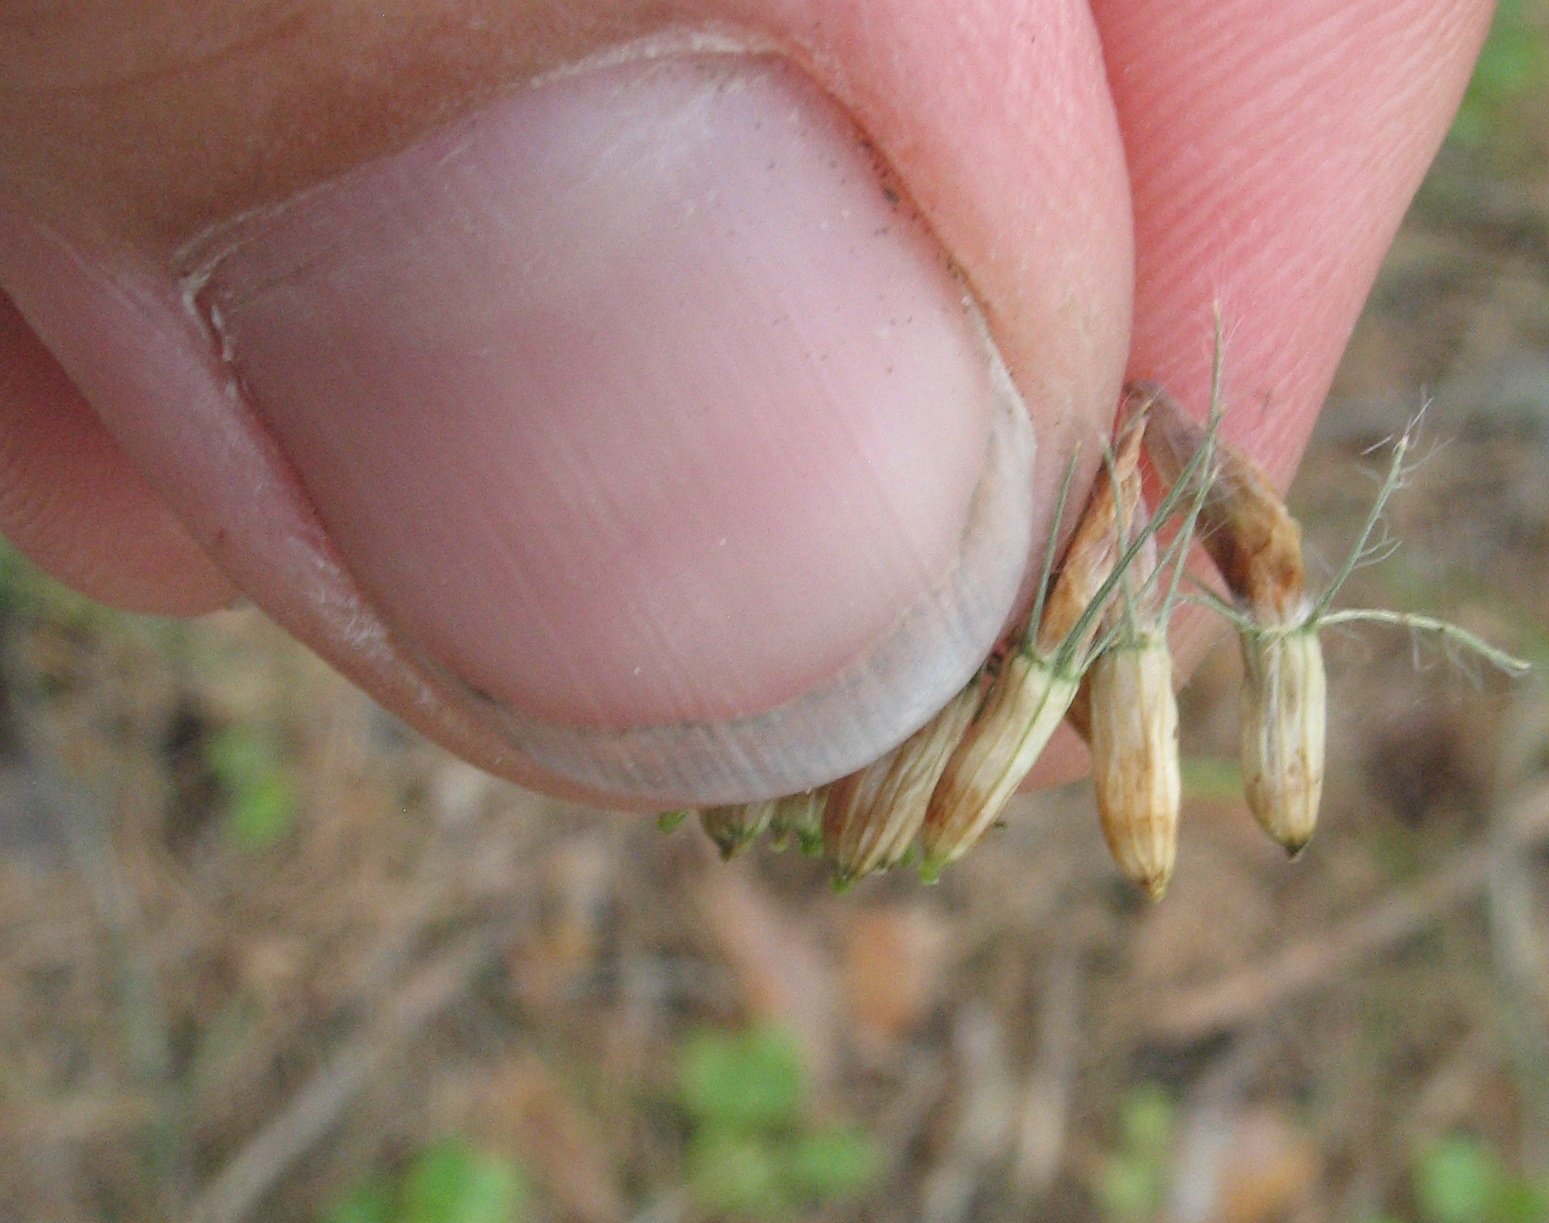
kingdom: Plantae
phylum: Tracheophyta
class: Magnoliopsida
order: Fabales
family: Fabaceae
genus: Trifolium
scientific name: Trifolium medium
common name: Zigzag clover
